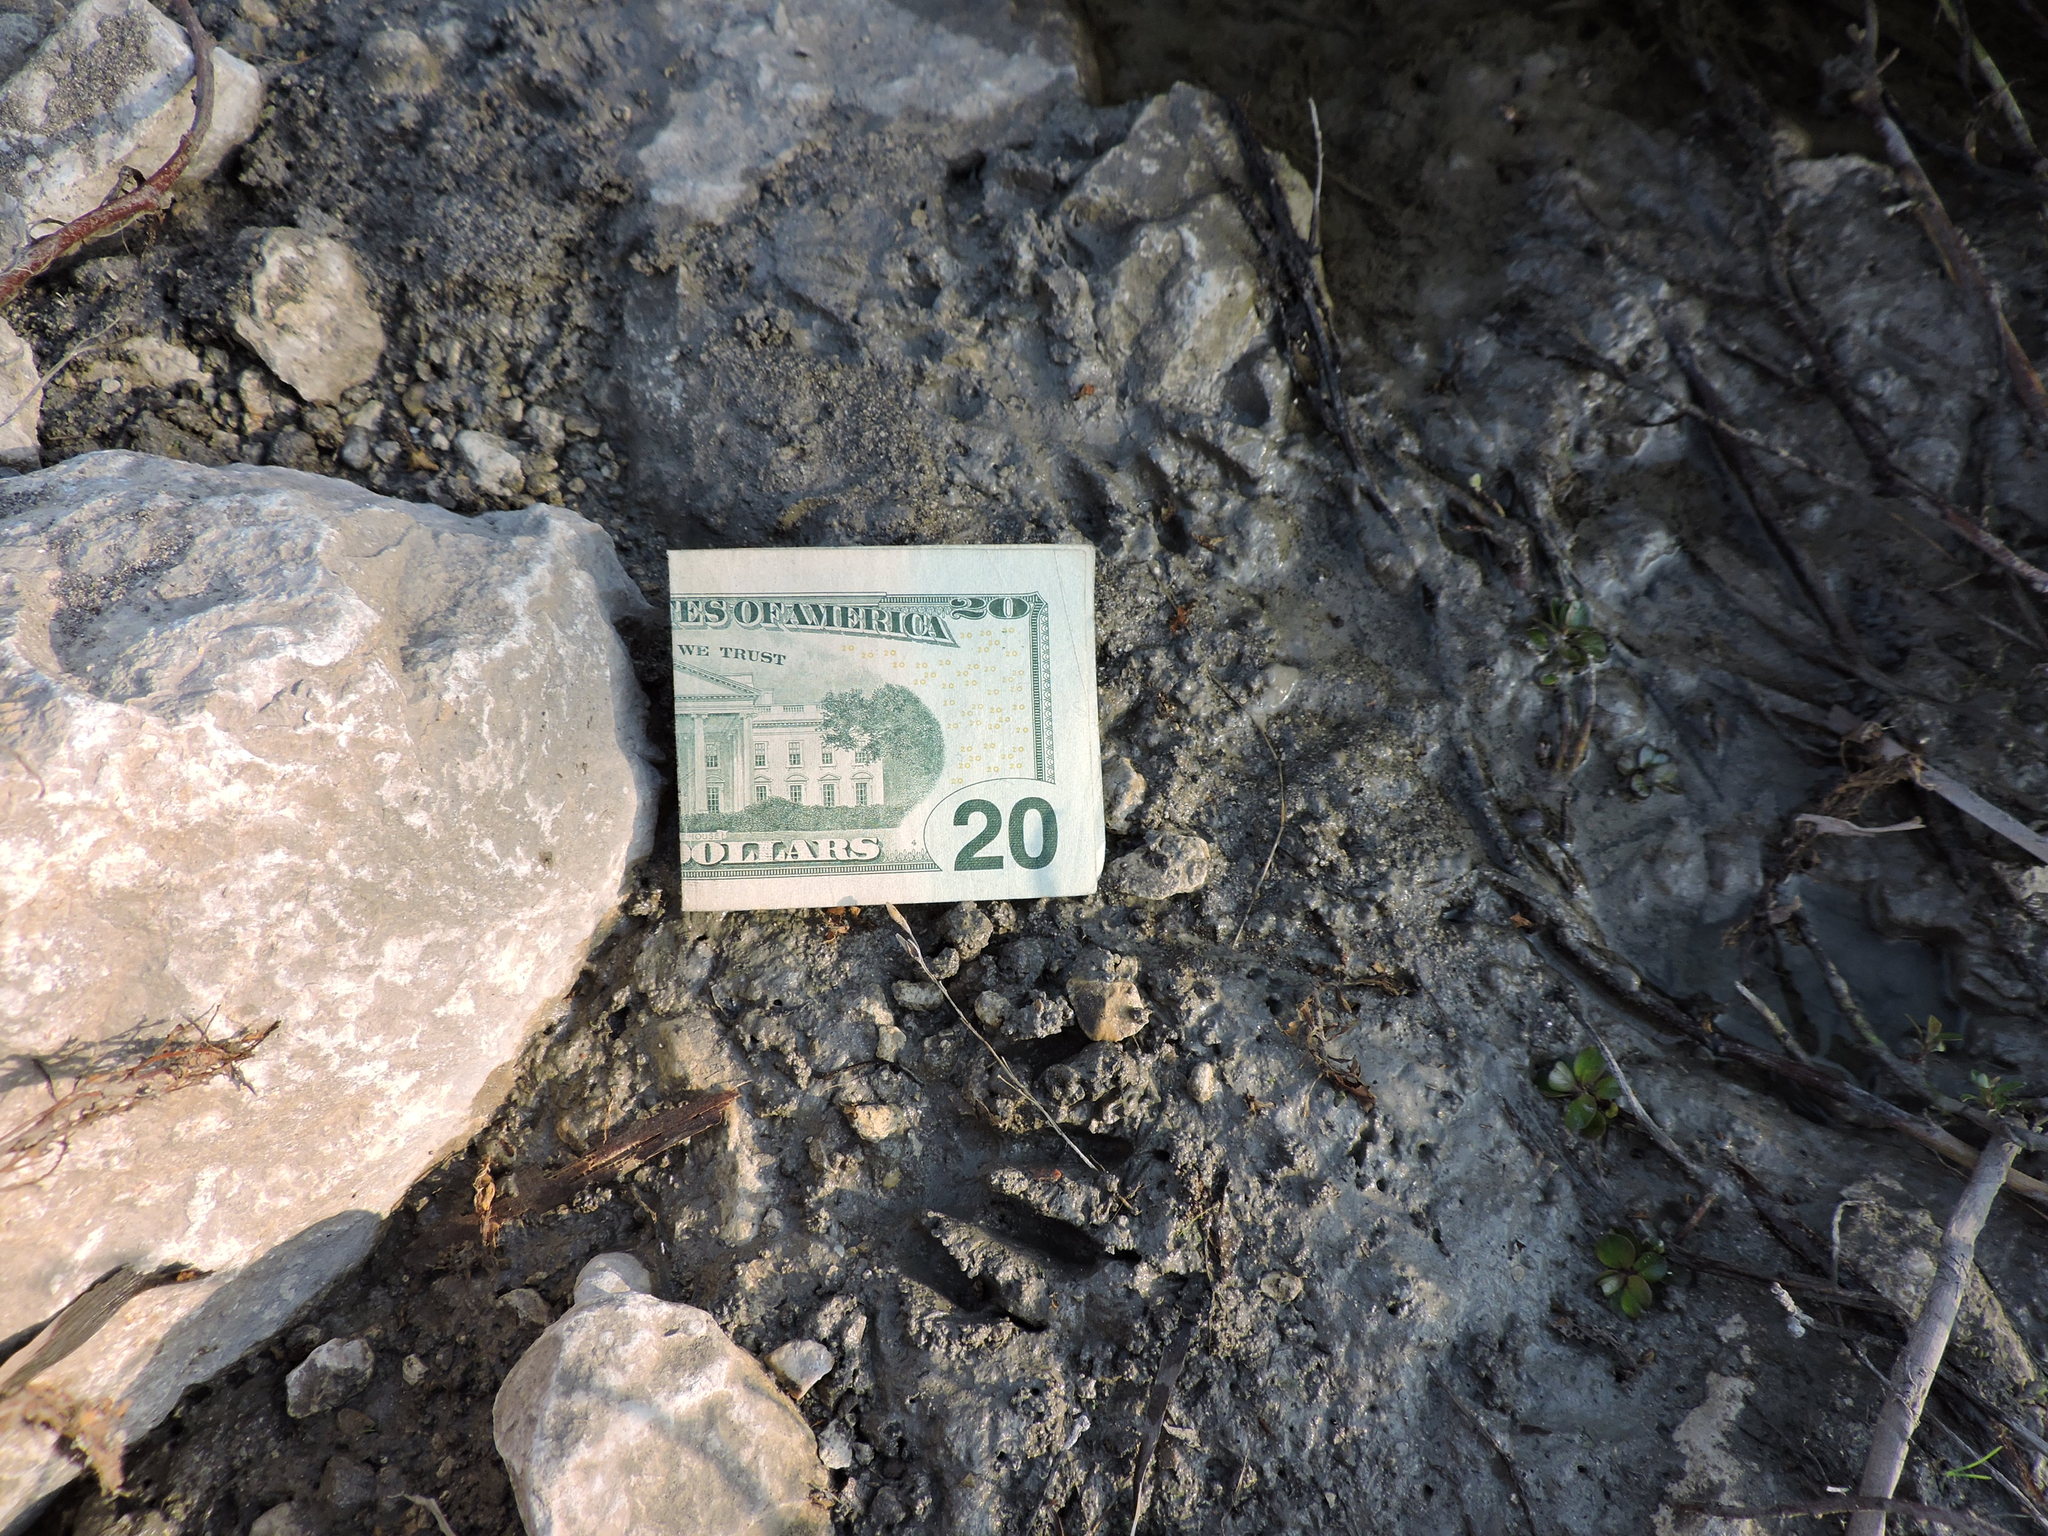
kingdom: Animalia
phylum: Chordata
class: Mammalia
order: Carnivora
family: Procyonidae
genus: Procyon
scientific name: Procyon lotor
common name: Raccoon
